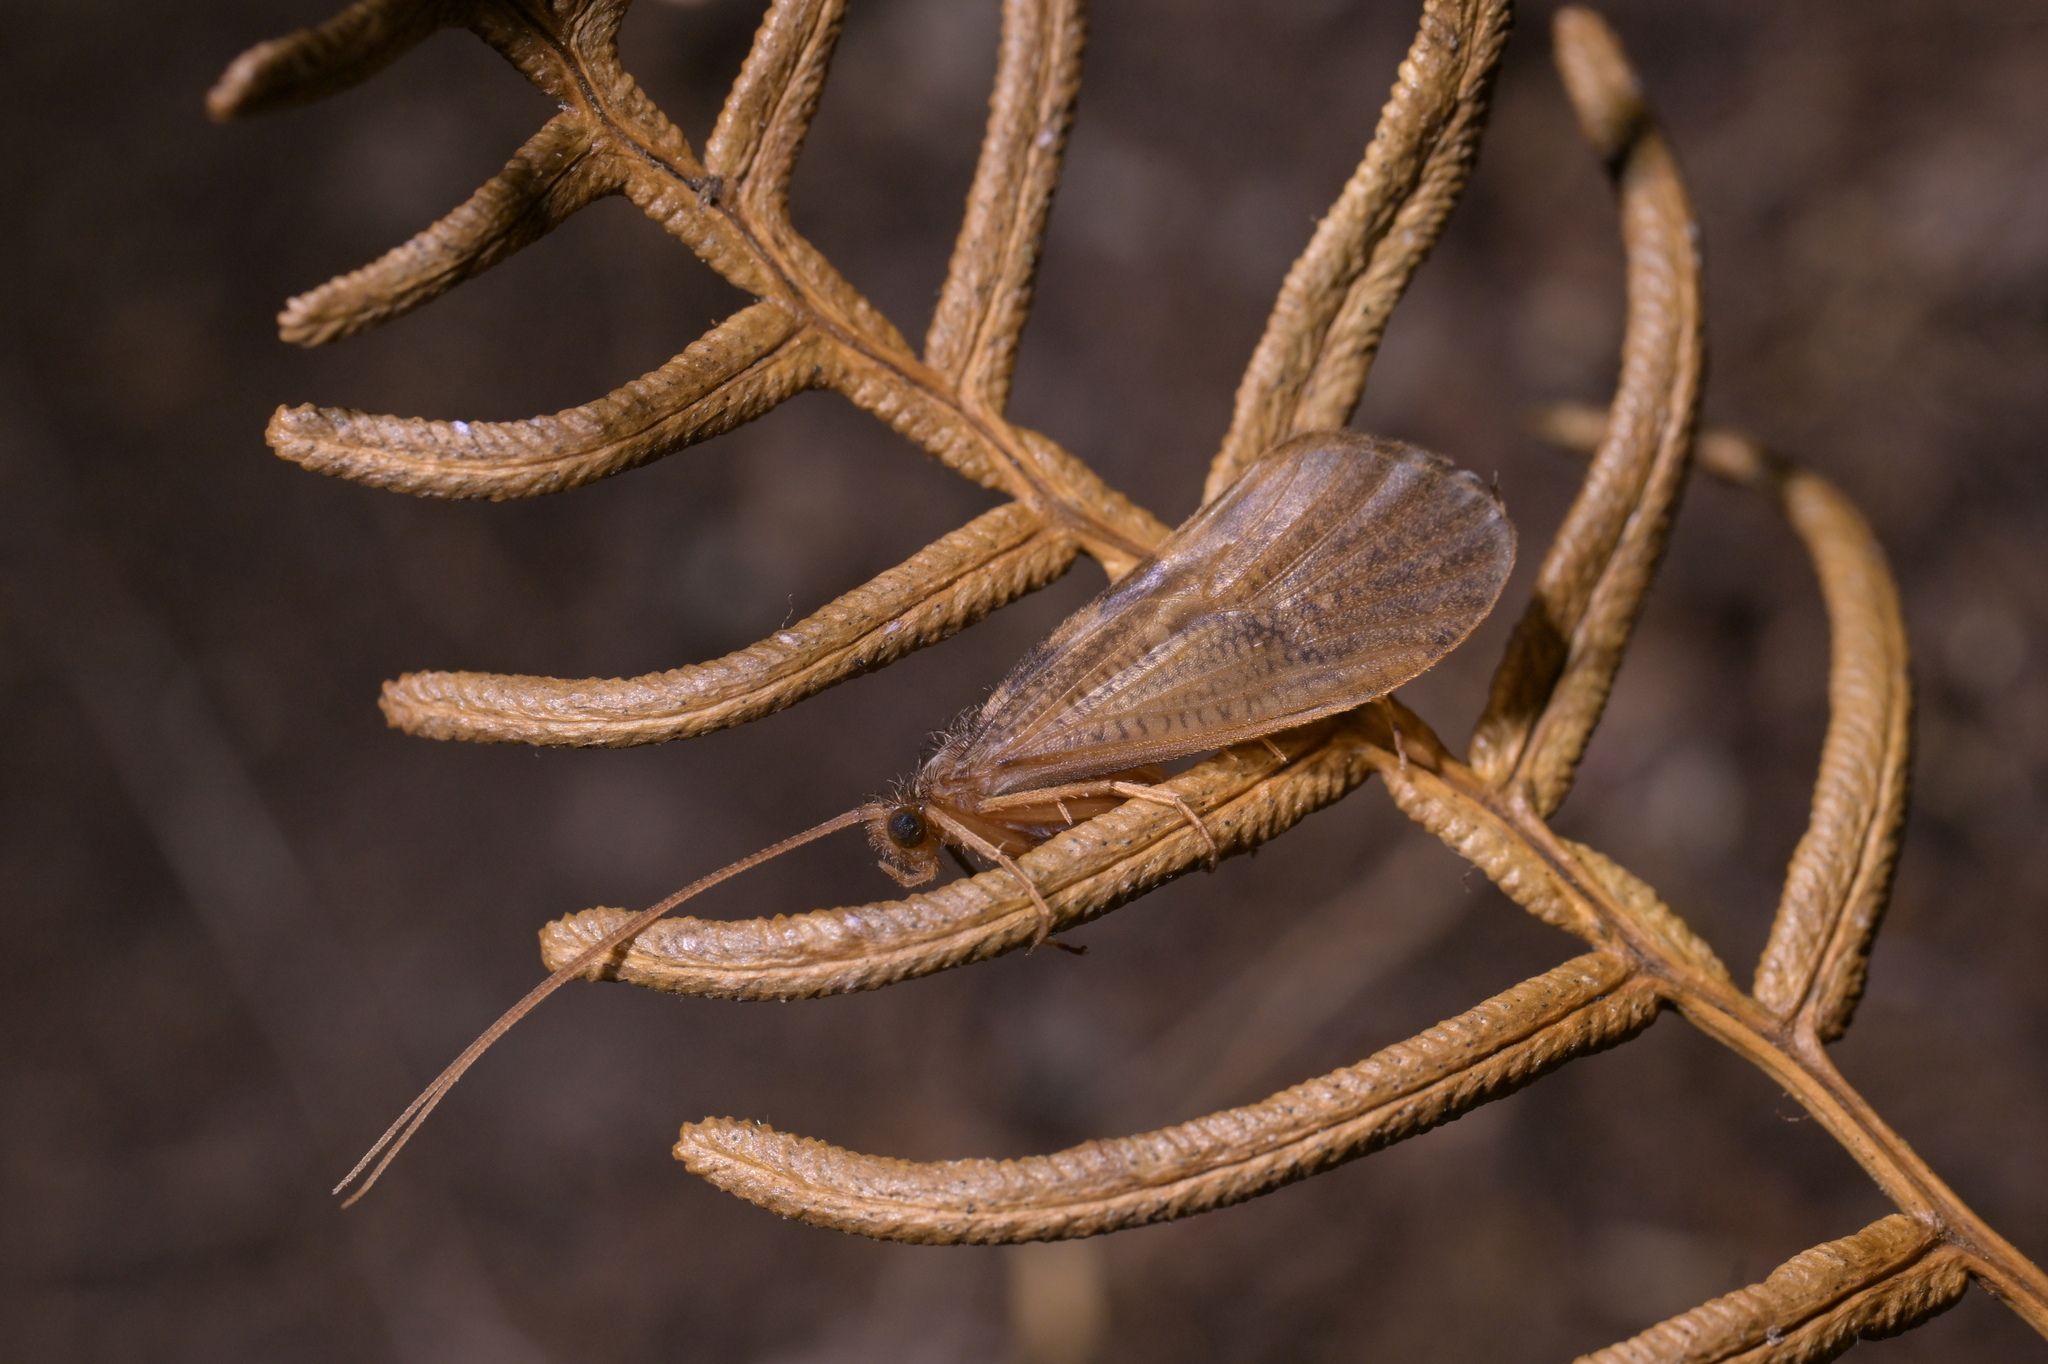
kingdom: Animalia
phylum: Arthropoda
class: Insecta
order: Trichoptera
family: Oeconesidae
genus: Oeconesus
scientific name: Oeconesus maori
